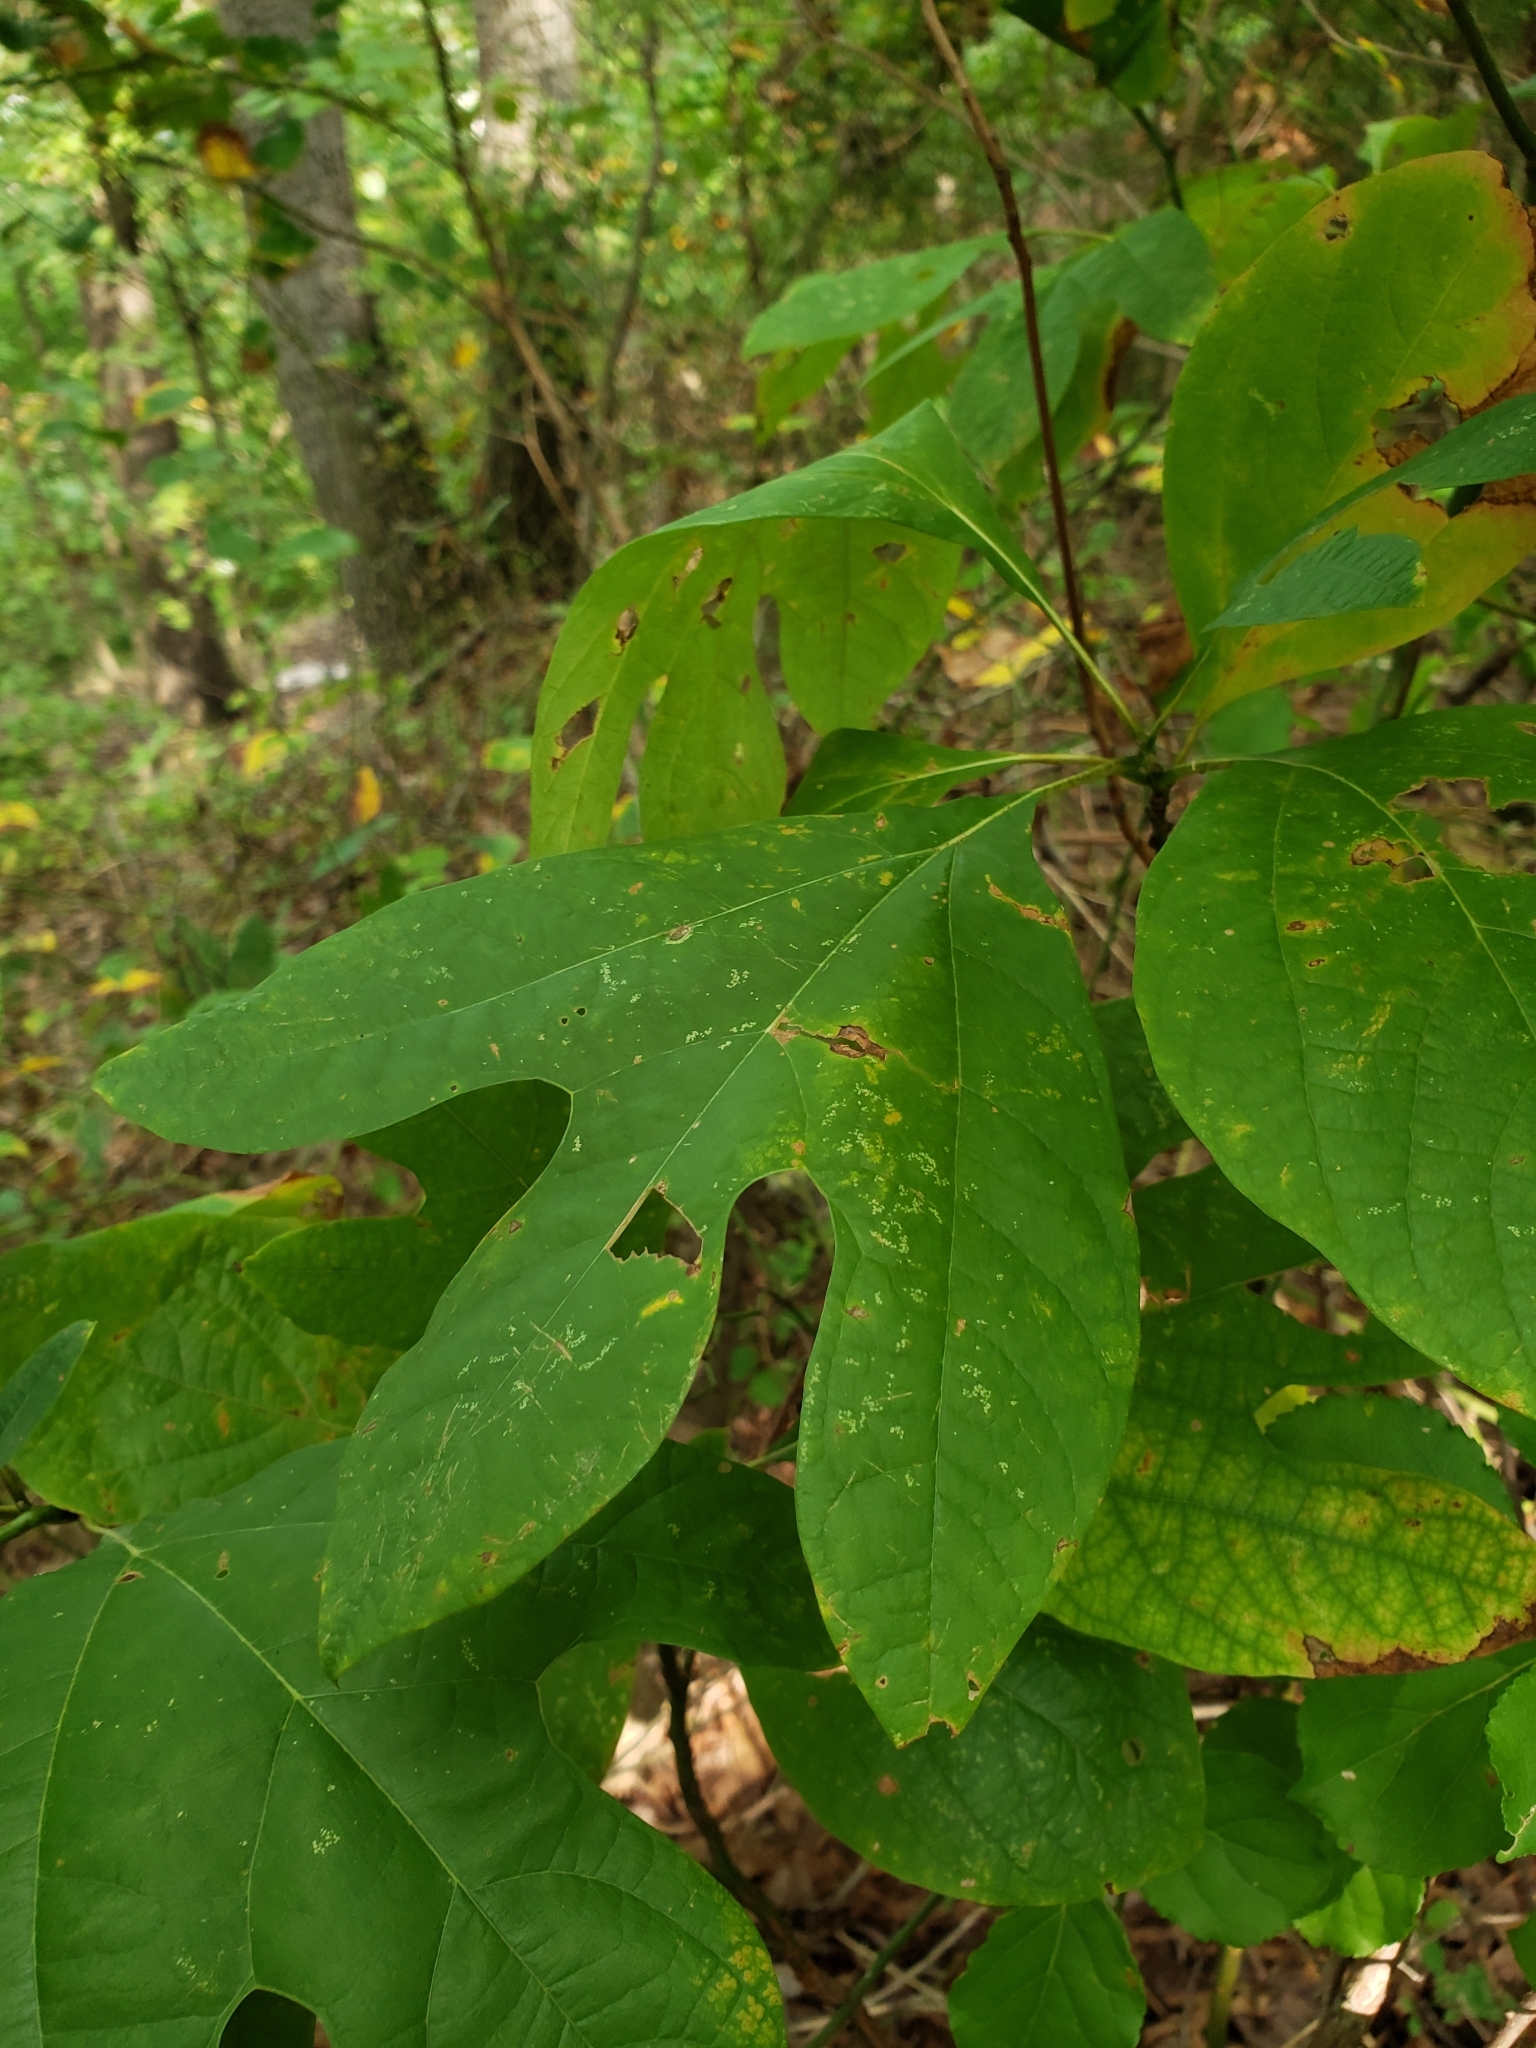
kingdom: Plantae
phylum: Tracheophyta
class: Magnoliopsida
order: Laurales
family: Lauraceae
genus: Sassafras
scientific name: Sassafras albidum
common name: Sassafras
